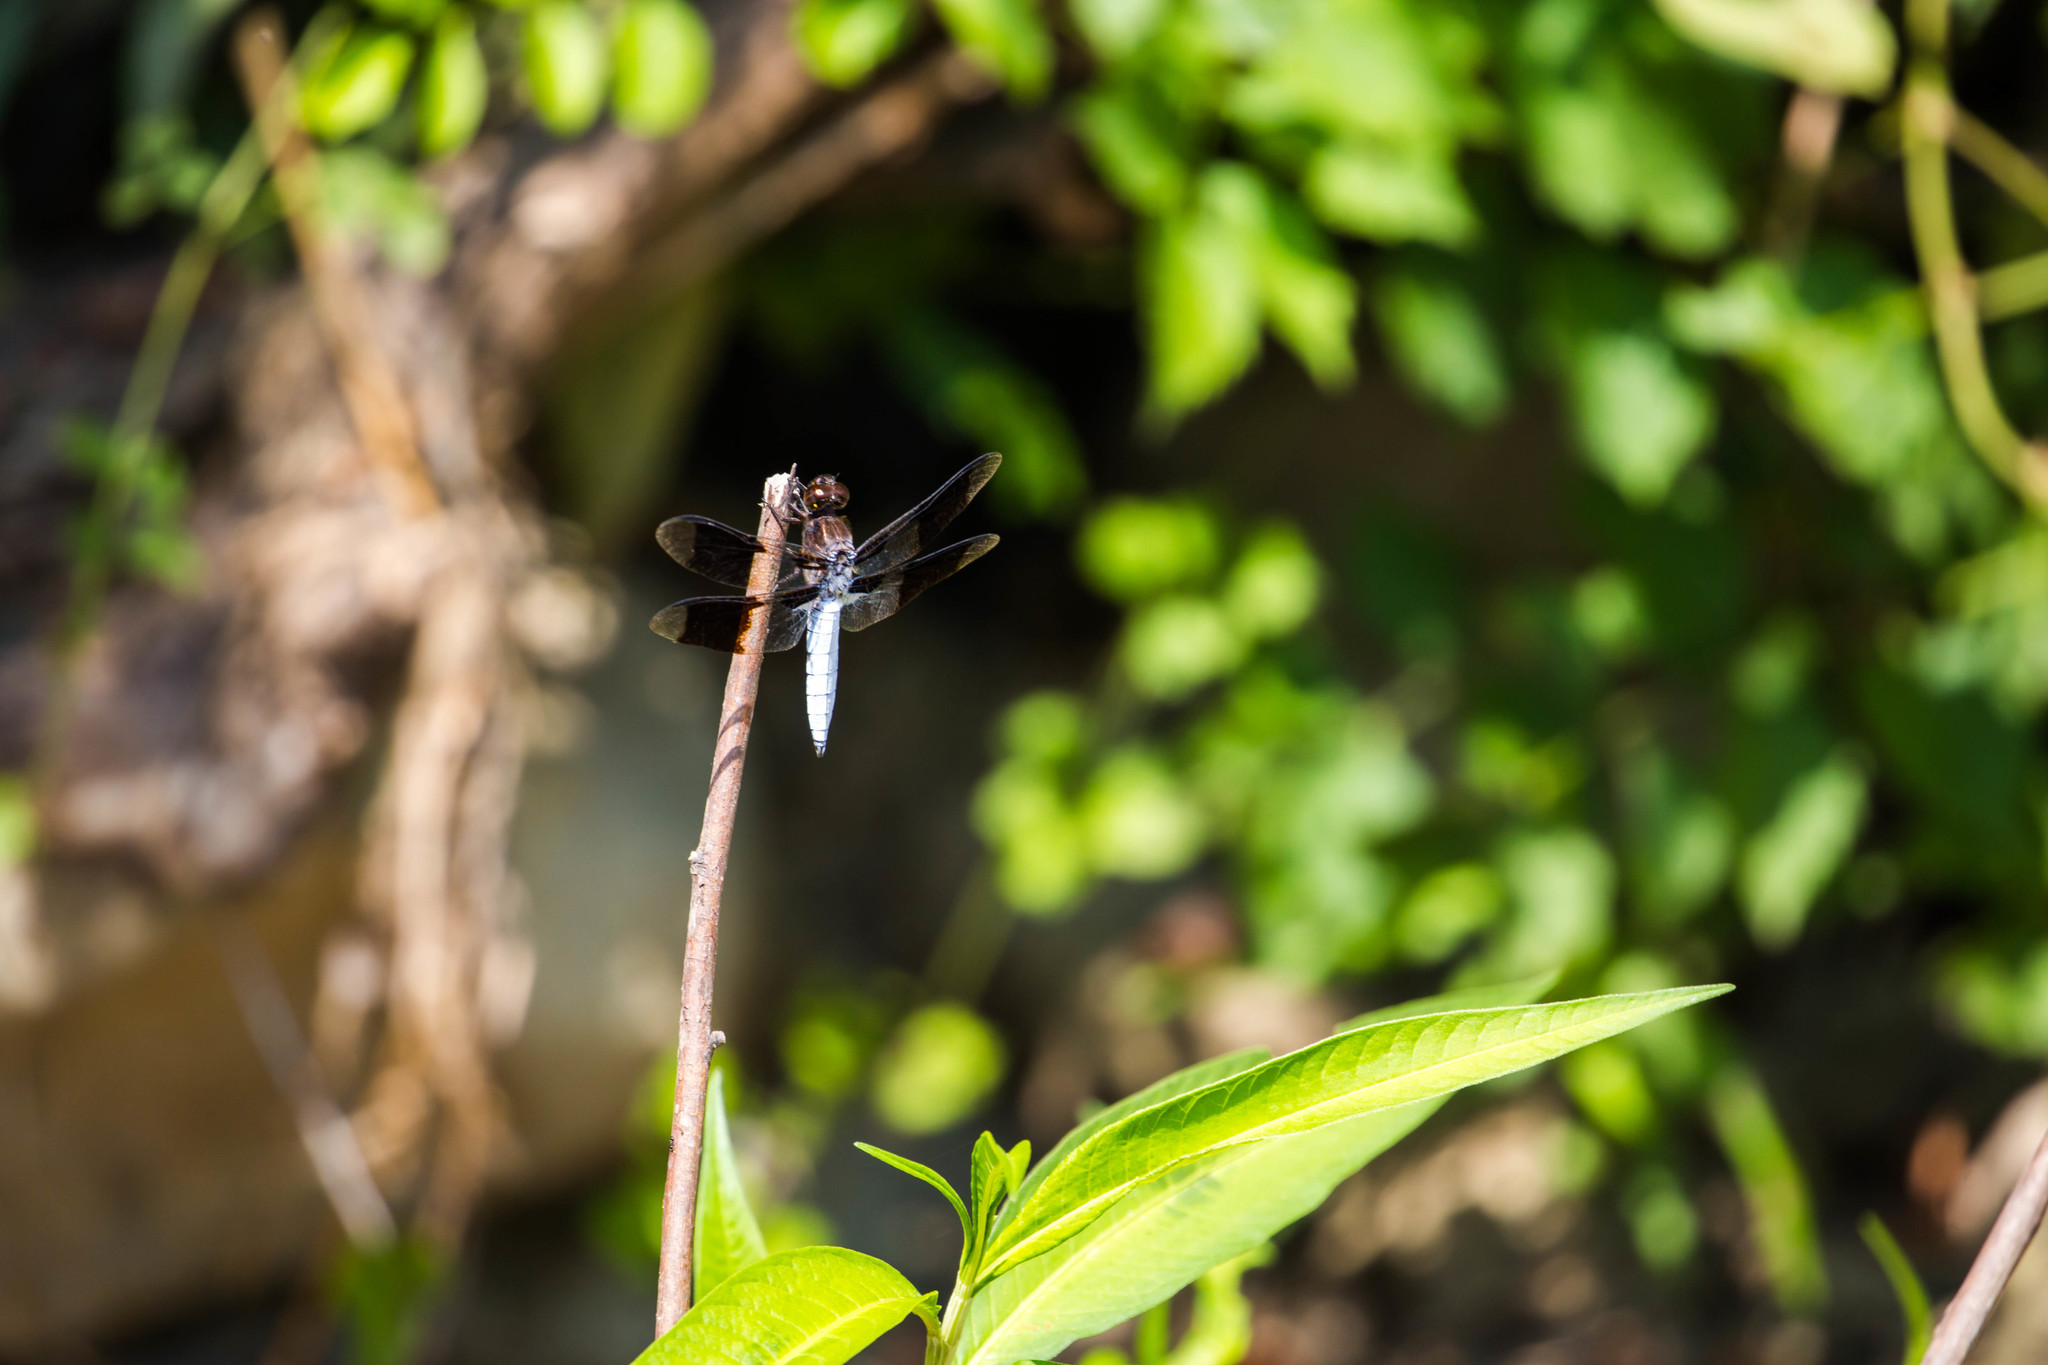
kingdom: Animalia
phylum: Arthropoda
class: Insecta
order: Odonata
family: Libellulidae
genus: Plathemis
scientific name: Plathemis lydia
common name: Common whitetail
